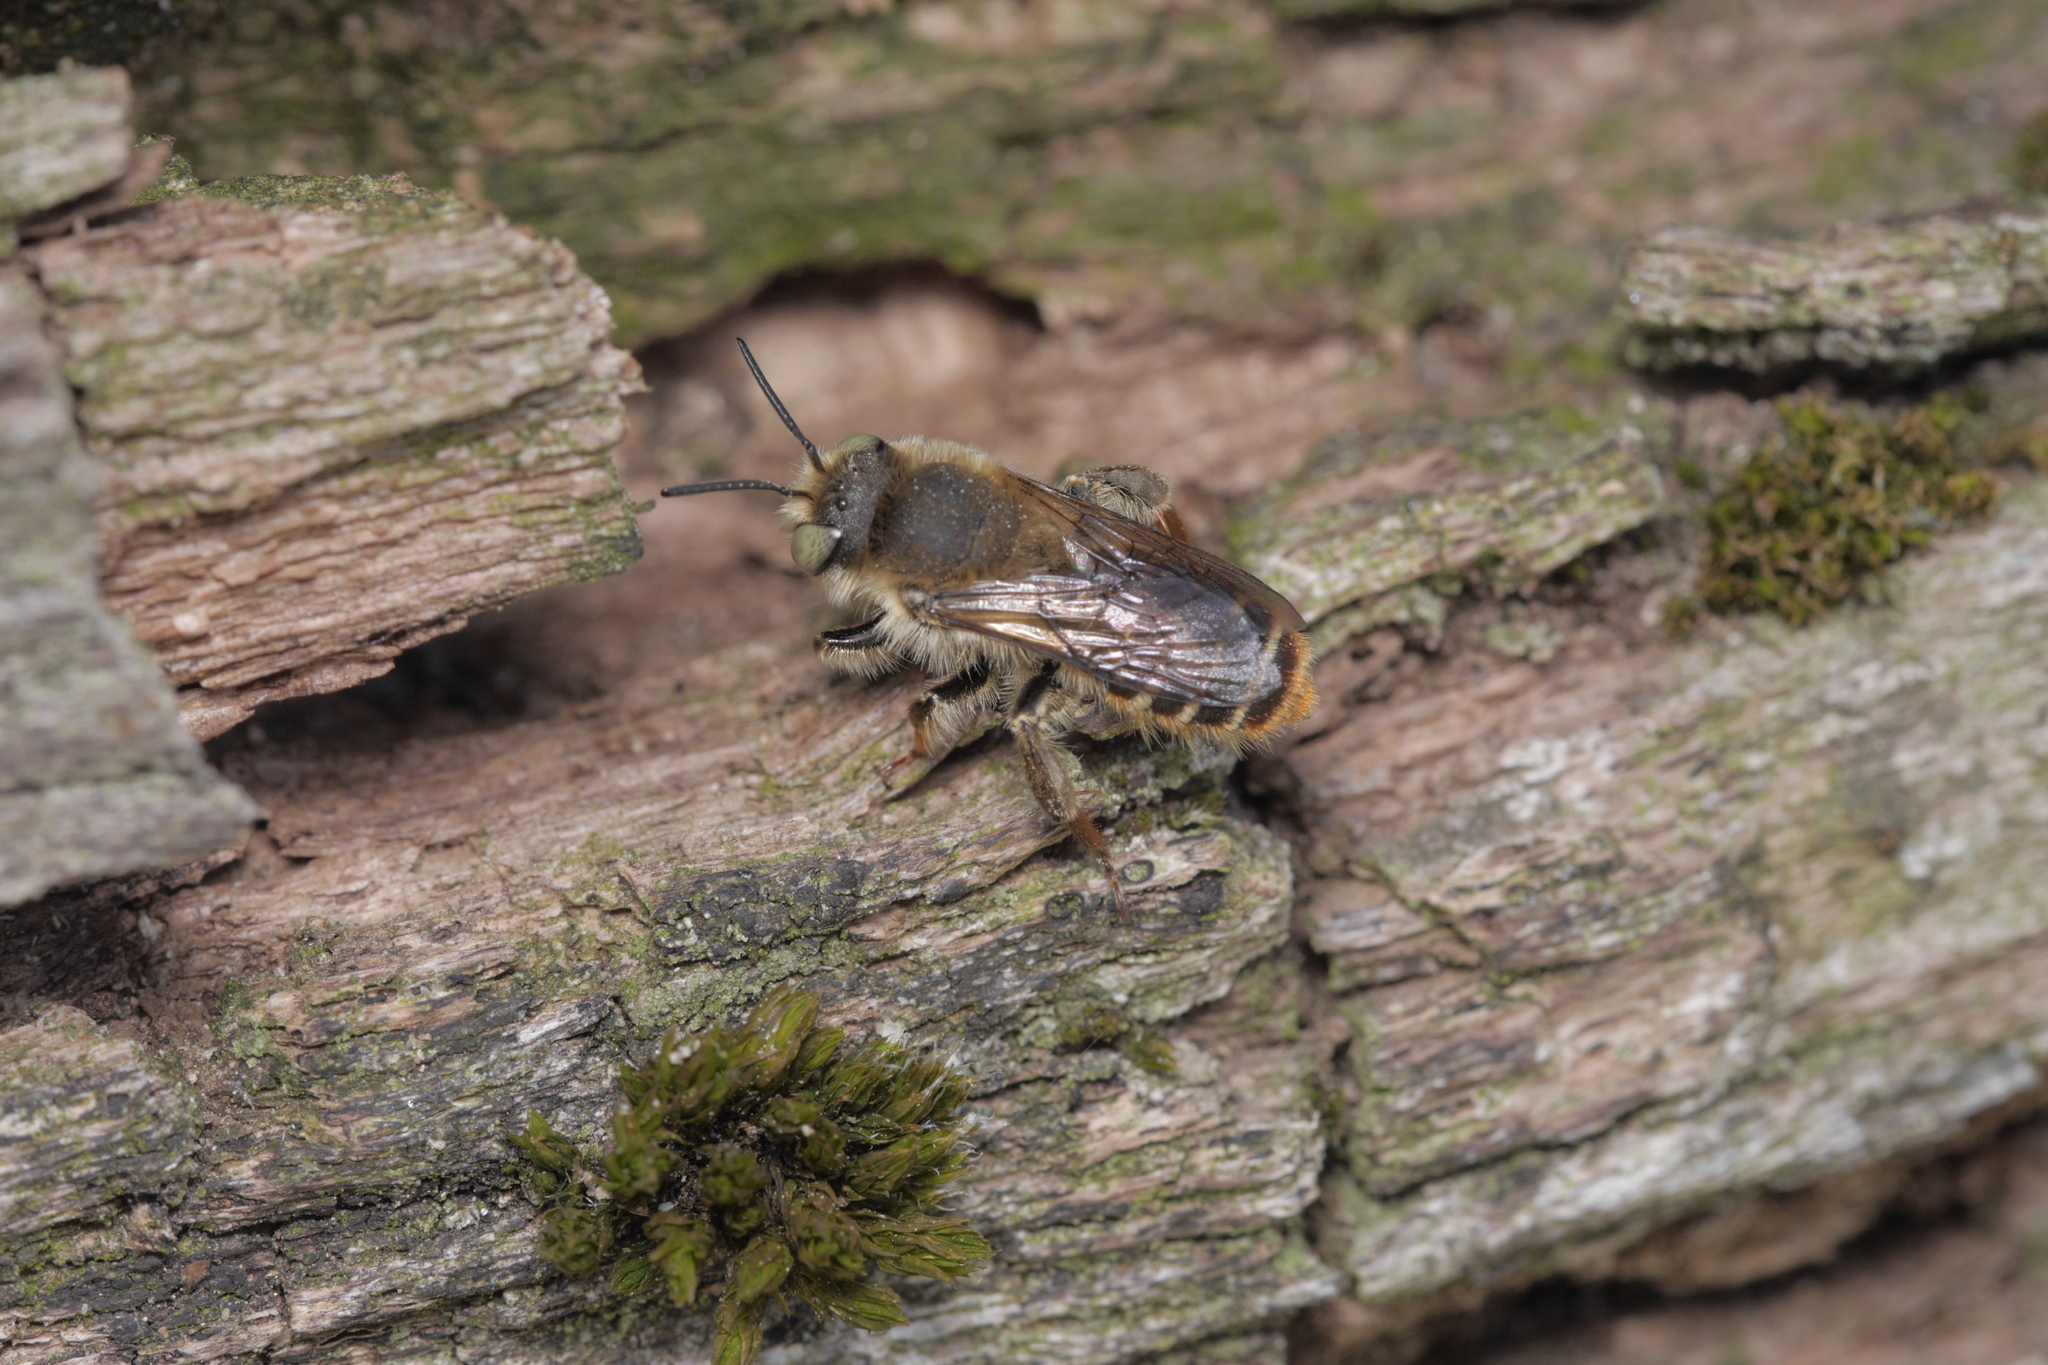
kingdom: Animalia
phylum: Arthropoda
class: Insecta
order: Hymenoptera
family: Megachilidae
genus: Lithurgus
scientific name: Lithurgus chrysurus
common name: Wood-boring bee
